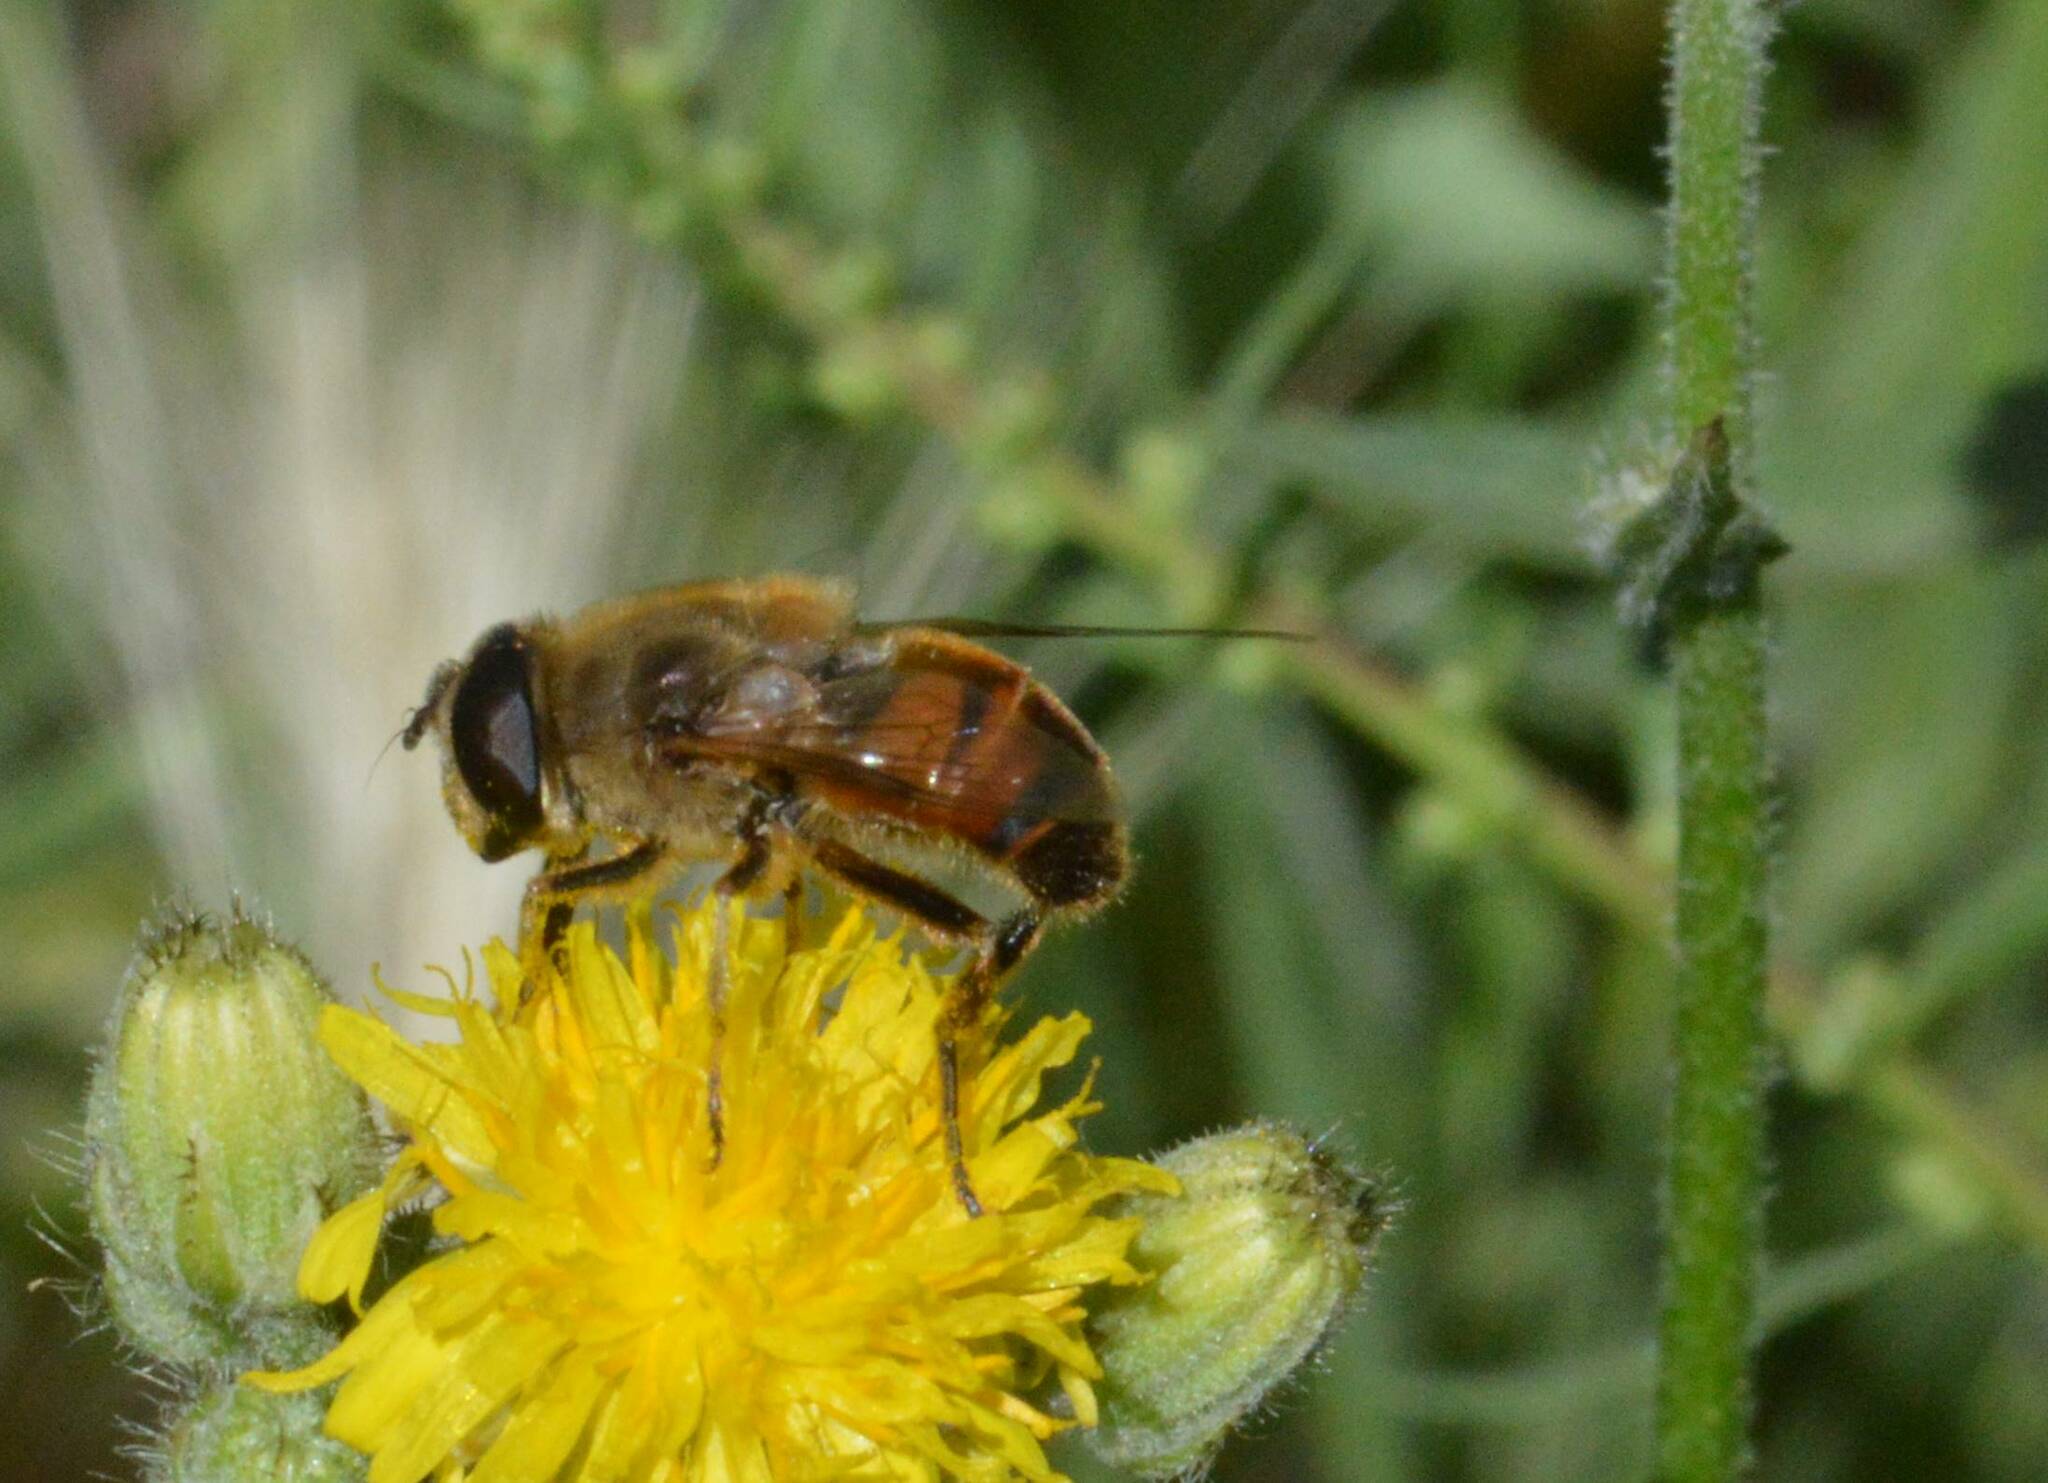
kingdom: Animalia
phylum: Arthropoda
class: Insecta
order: Diptera
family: Syrphidae
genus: Eristalis
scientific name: Eristalis tenax
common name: Drone fly
